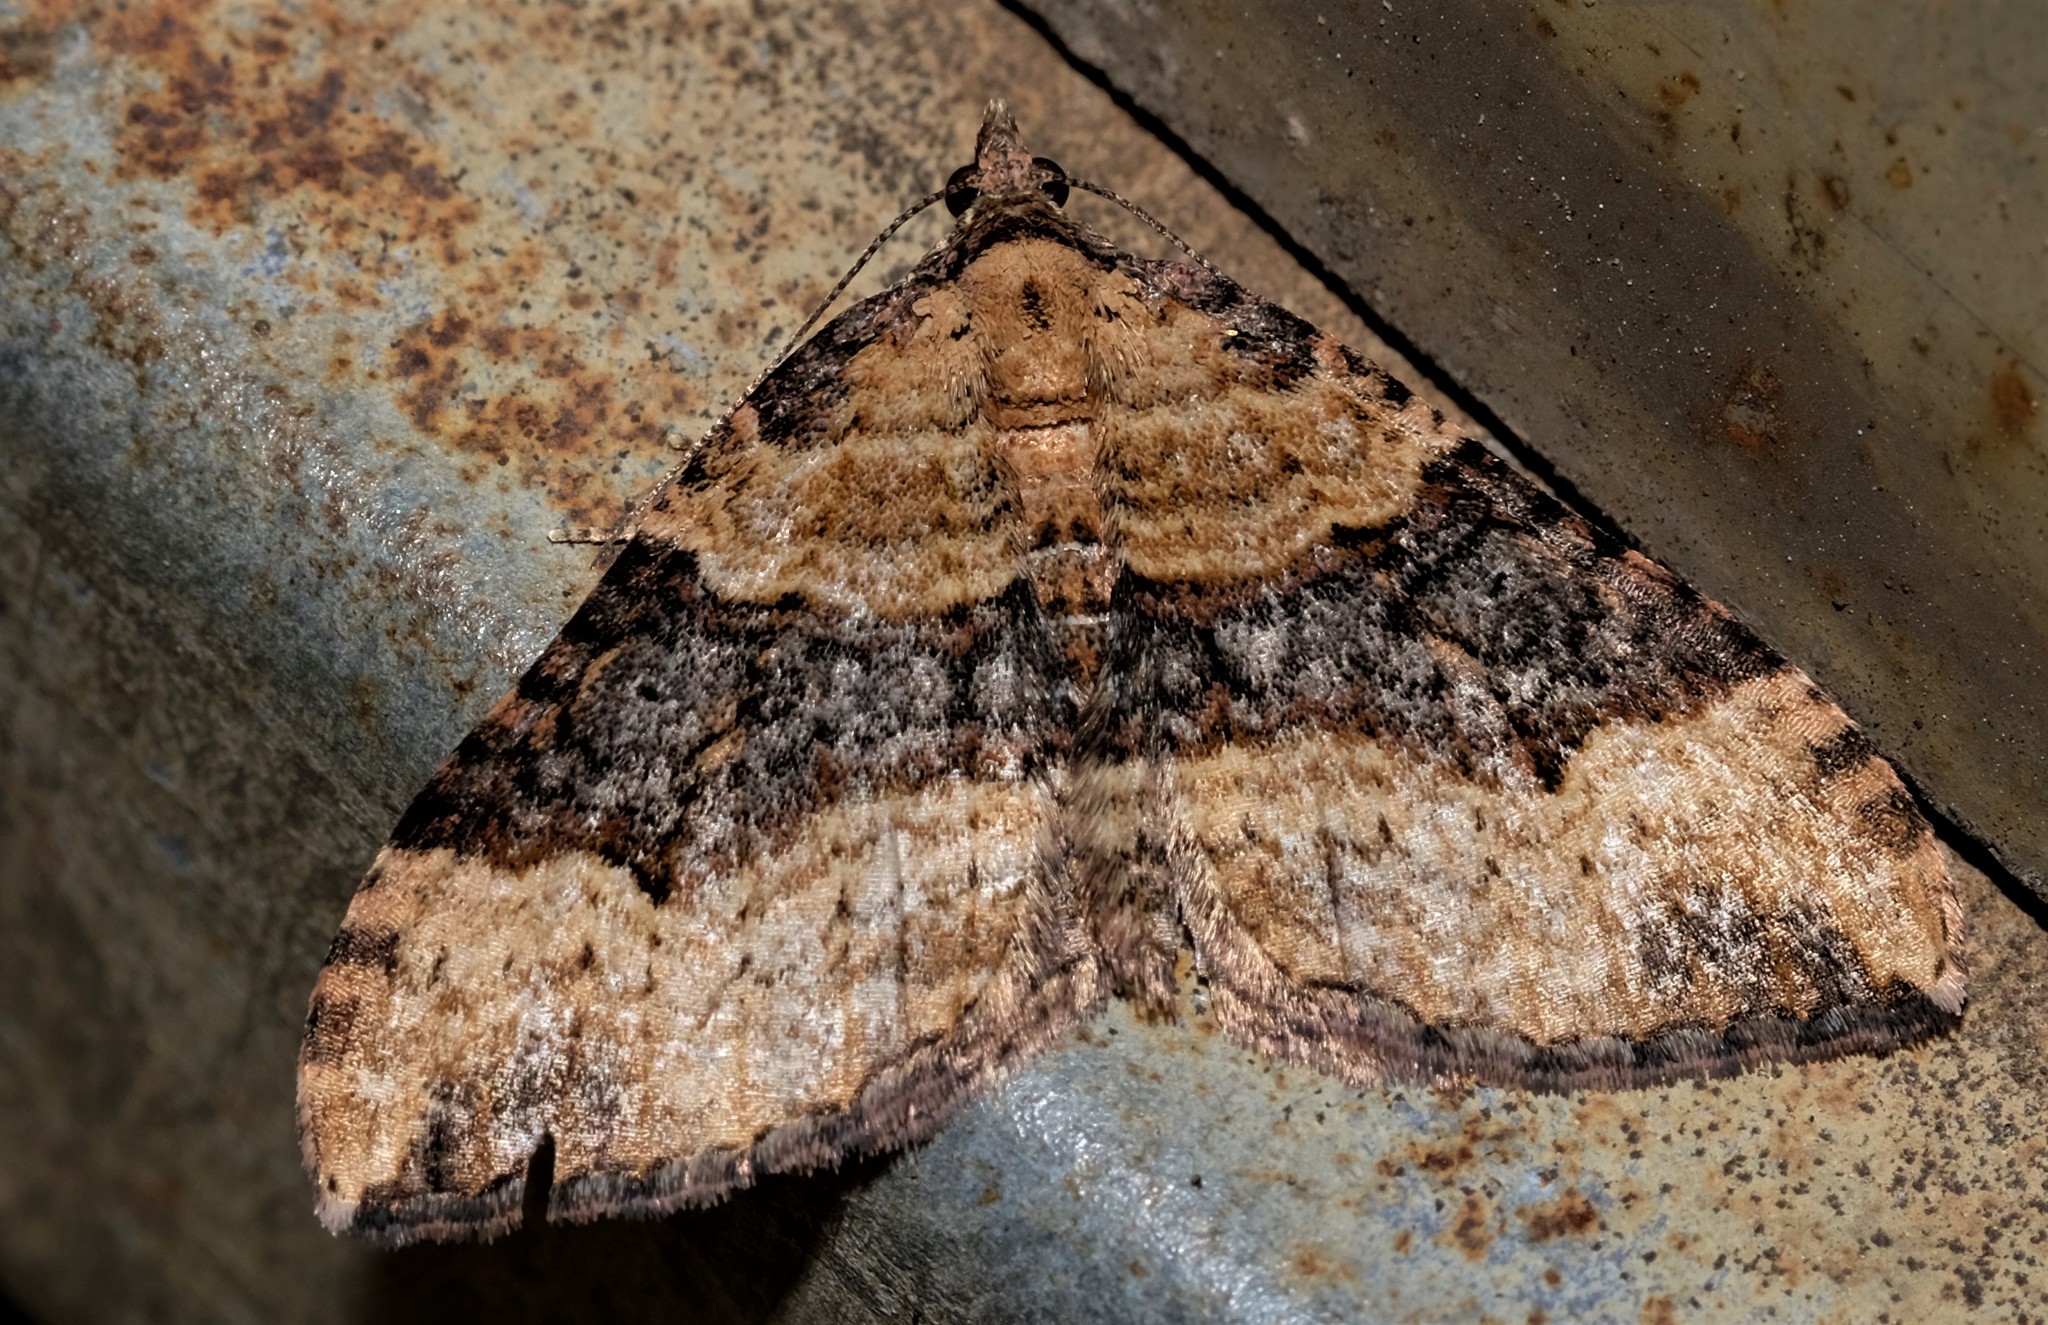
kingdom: Animalia
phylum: Arthropoda
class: Insecta
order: Lepidoptera
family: Geometridae
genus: Epyaxa
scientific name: Epyaxa subidaria
